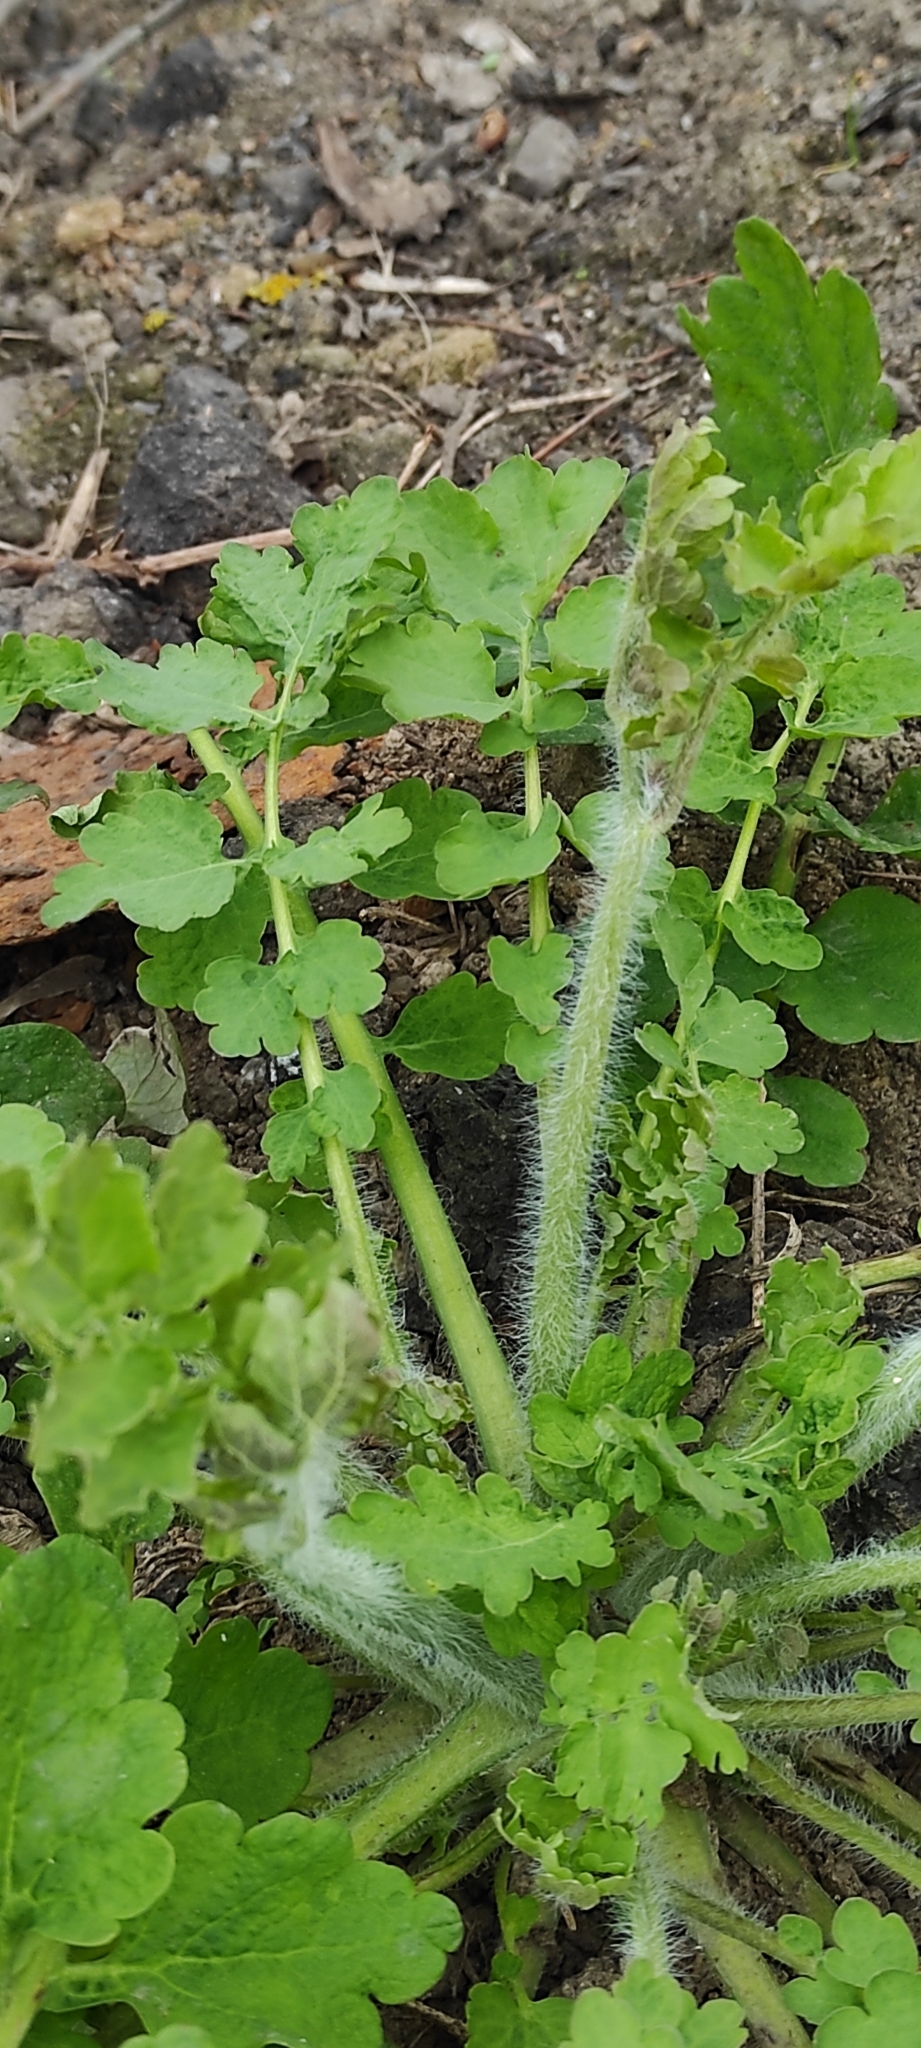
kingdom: Plantae
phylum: Tracheophyta
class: Magnoliopsida
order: Ranunculales
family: Papaveraceae
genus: Chelidonium
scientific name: Chelidonium majus
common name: Greater celandine
